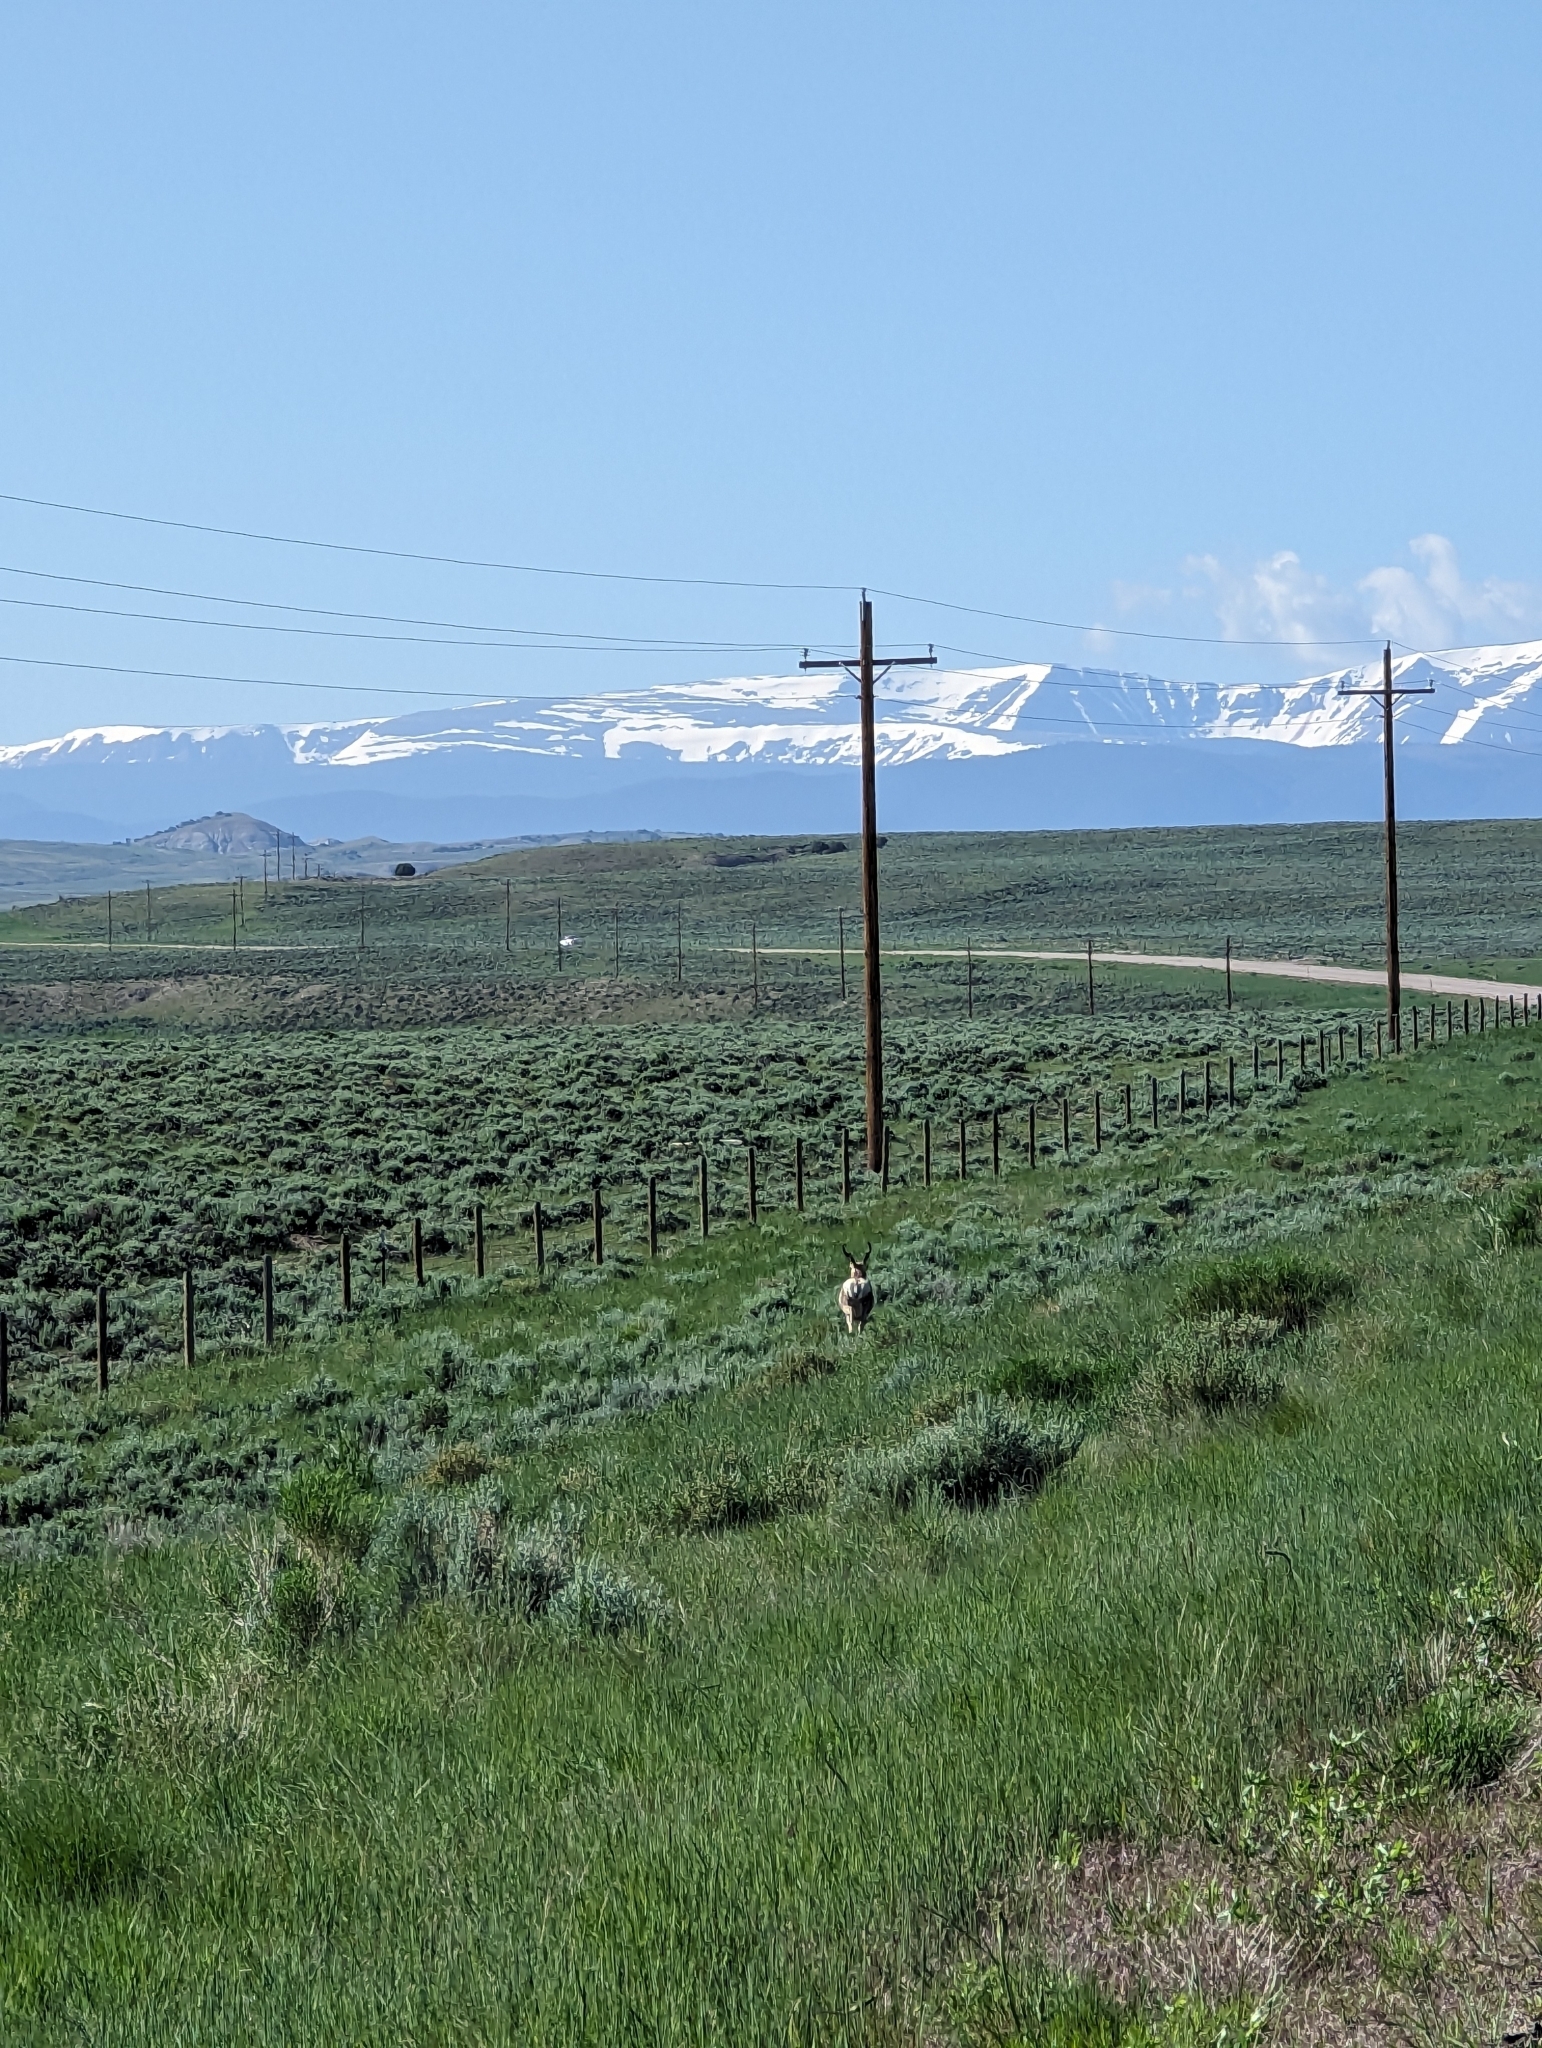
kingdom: Animalia
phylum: Chordata
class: Mammalia
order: Artiodactyla
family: Antilocapridae
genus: Antilocapra
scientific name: Antilocapra americana
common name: Pronghorn
